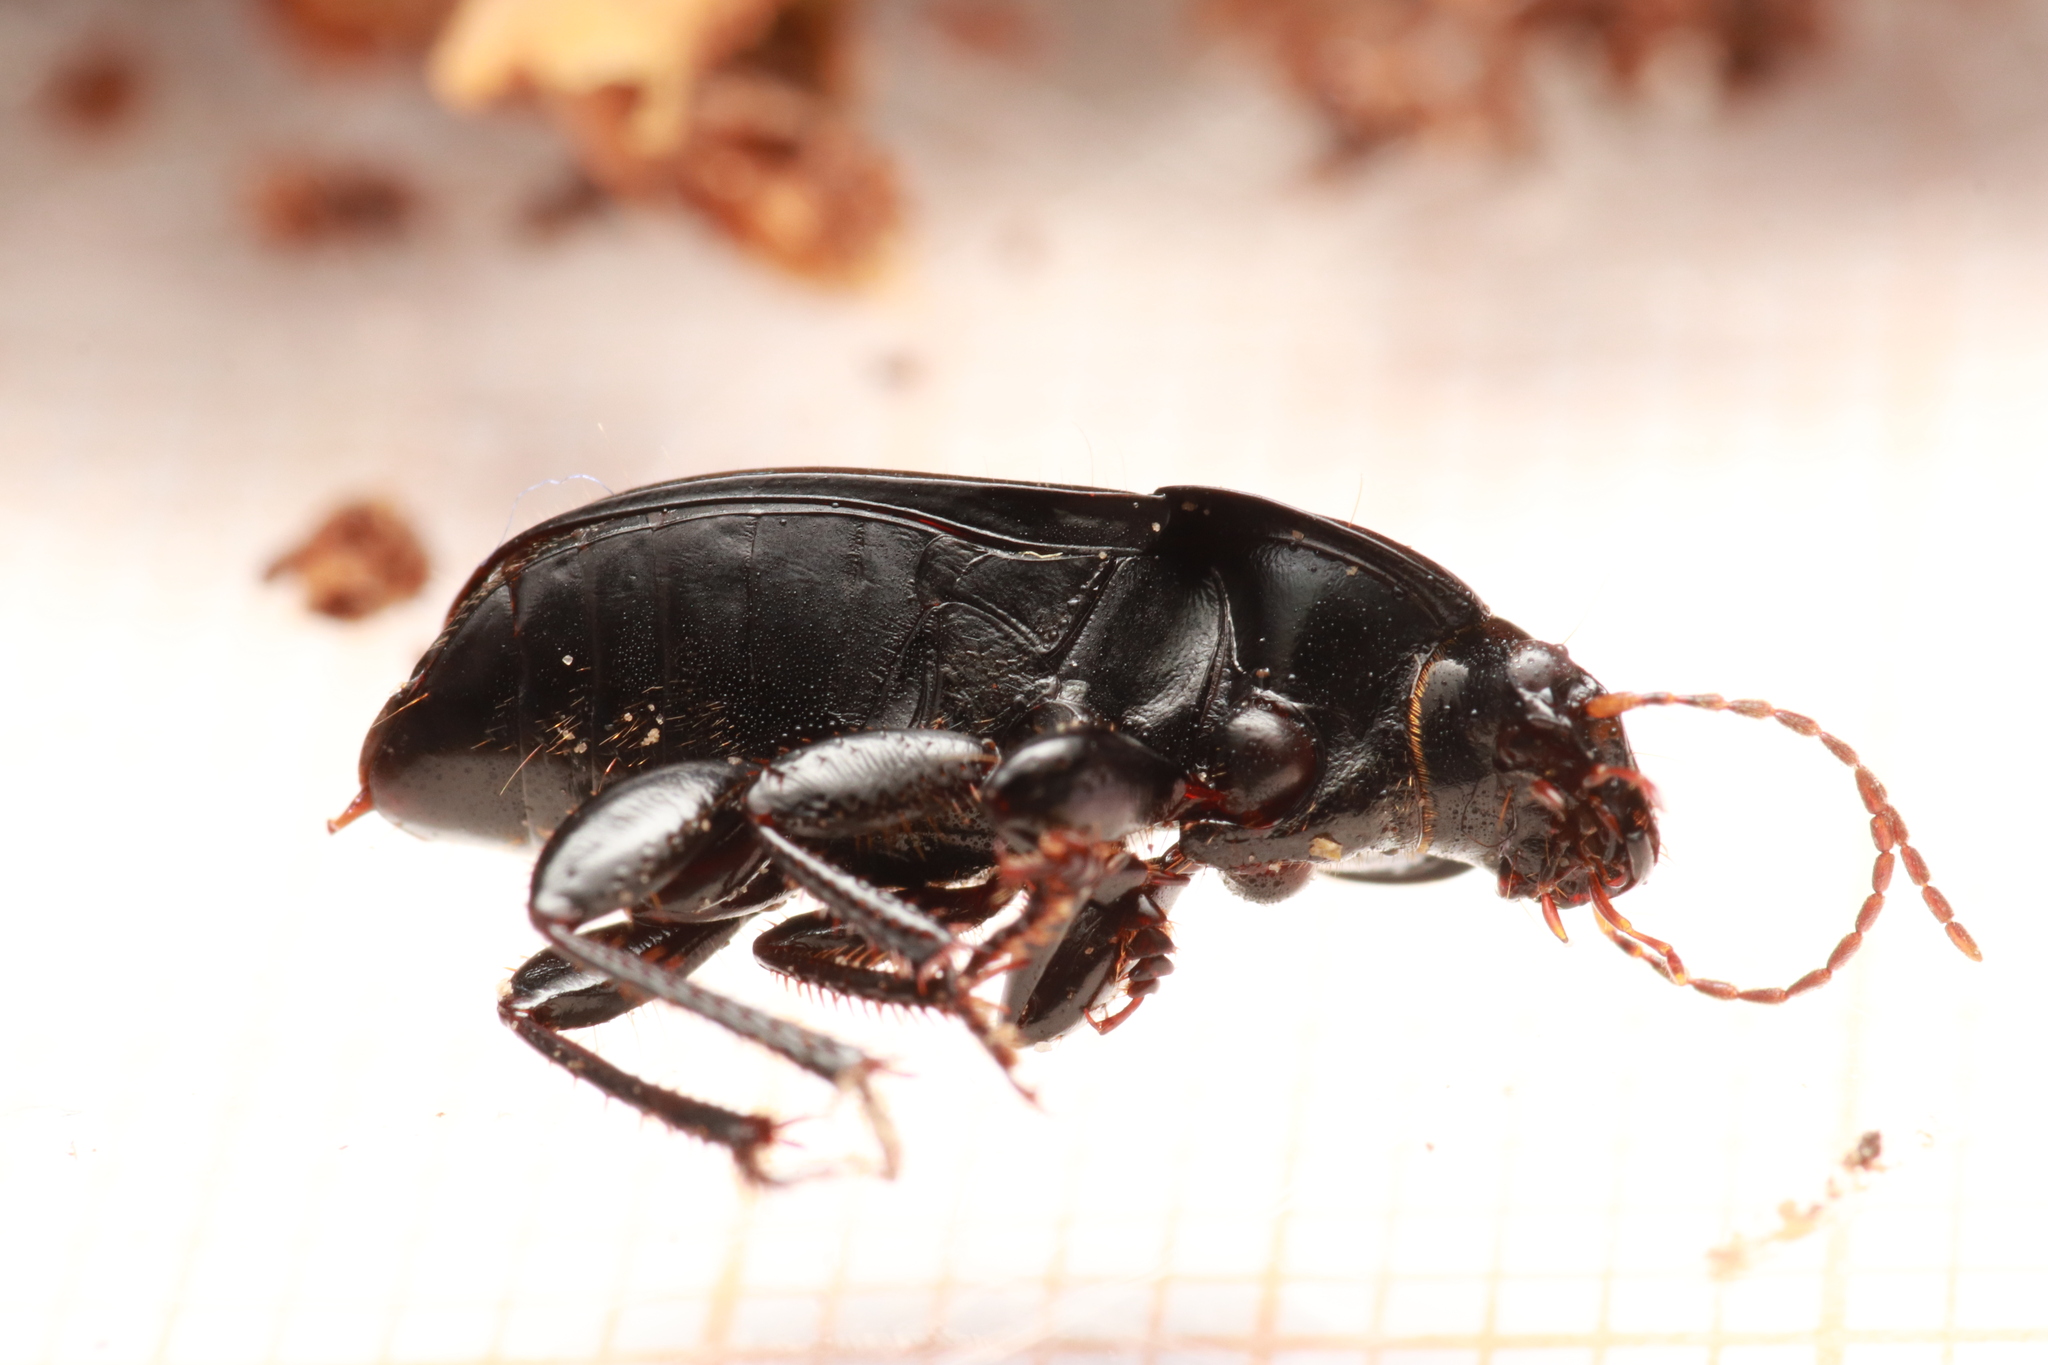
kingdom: Animalia
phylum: Arthropoda
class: Insecta
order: Coleoptera
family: Carabidae
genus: Harpalus
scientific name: Harpalus dimidiatus
